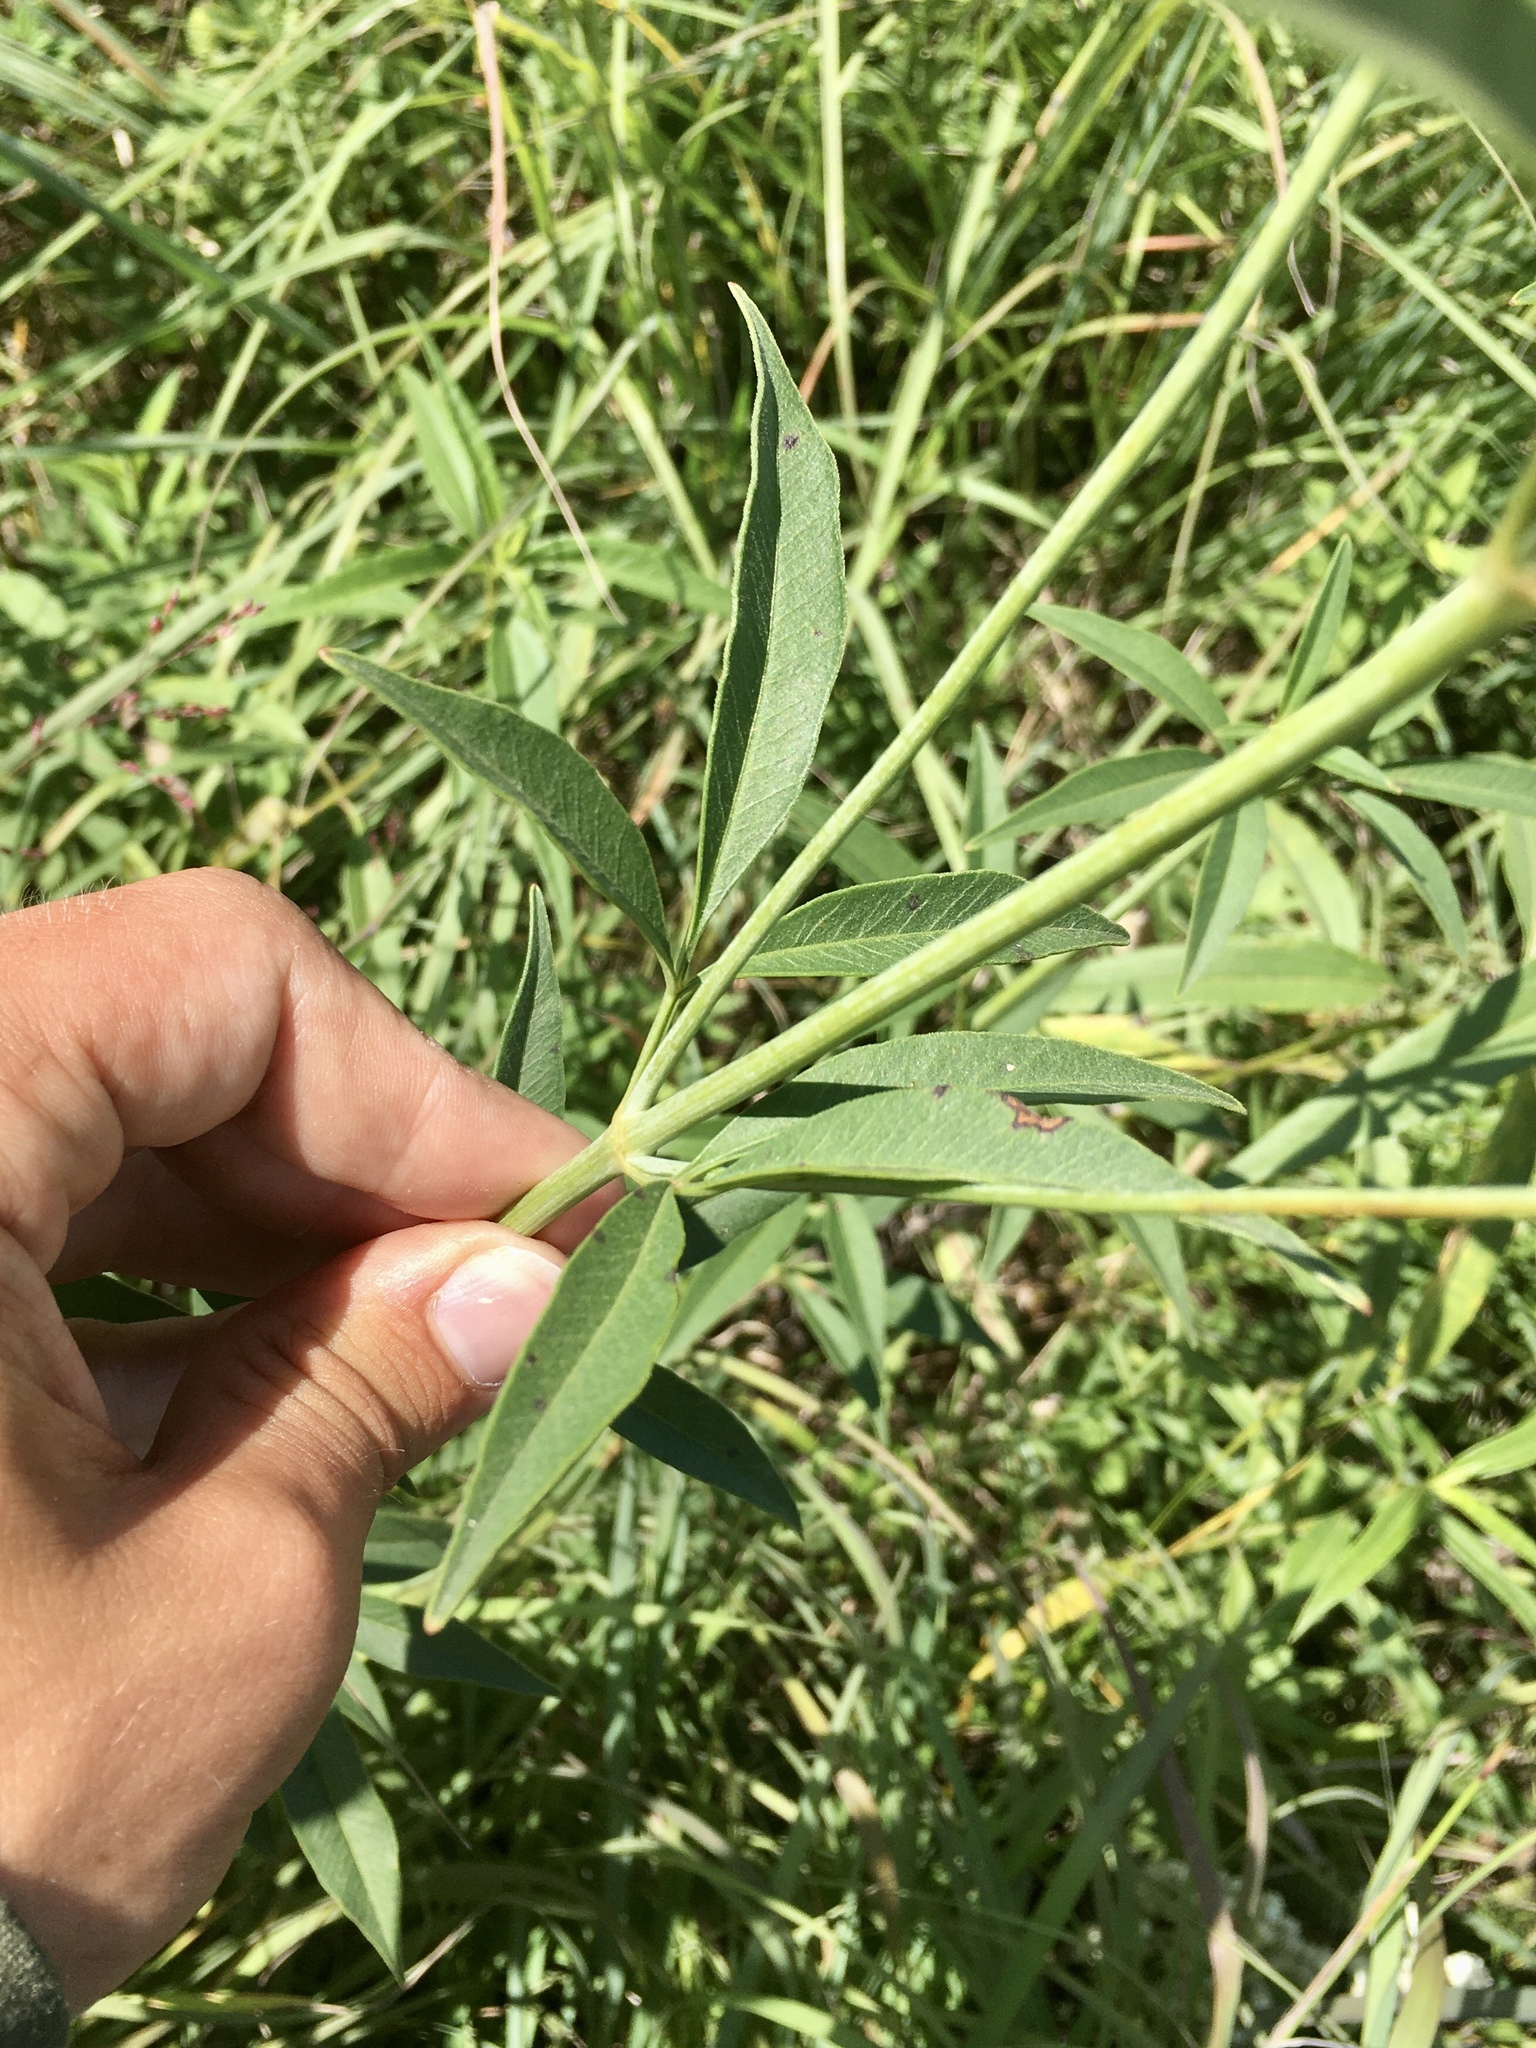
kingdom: Plantae
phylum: Tracheophyta
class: Magnoliopsida
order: Asterales
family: Asteraceae
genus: Coreopsis
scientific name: Coreopsis tripteris
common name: Tall coreopsis
